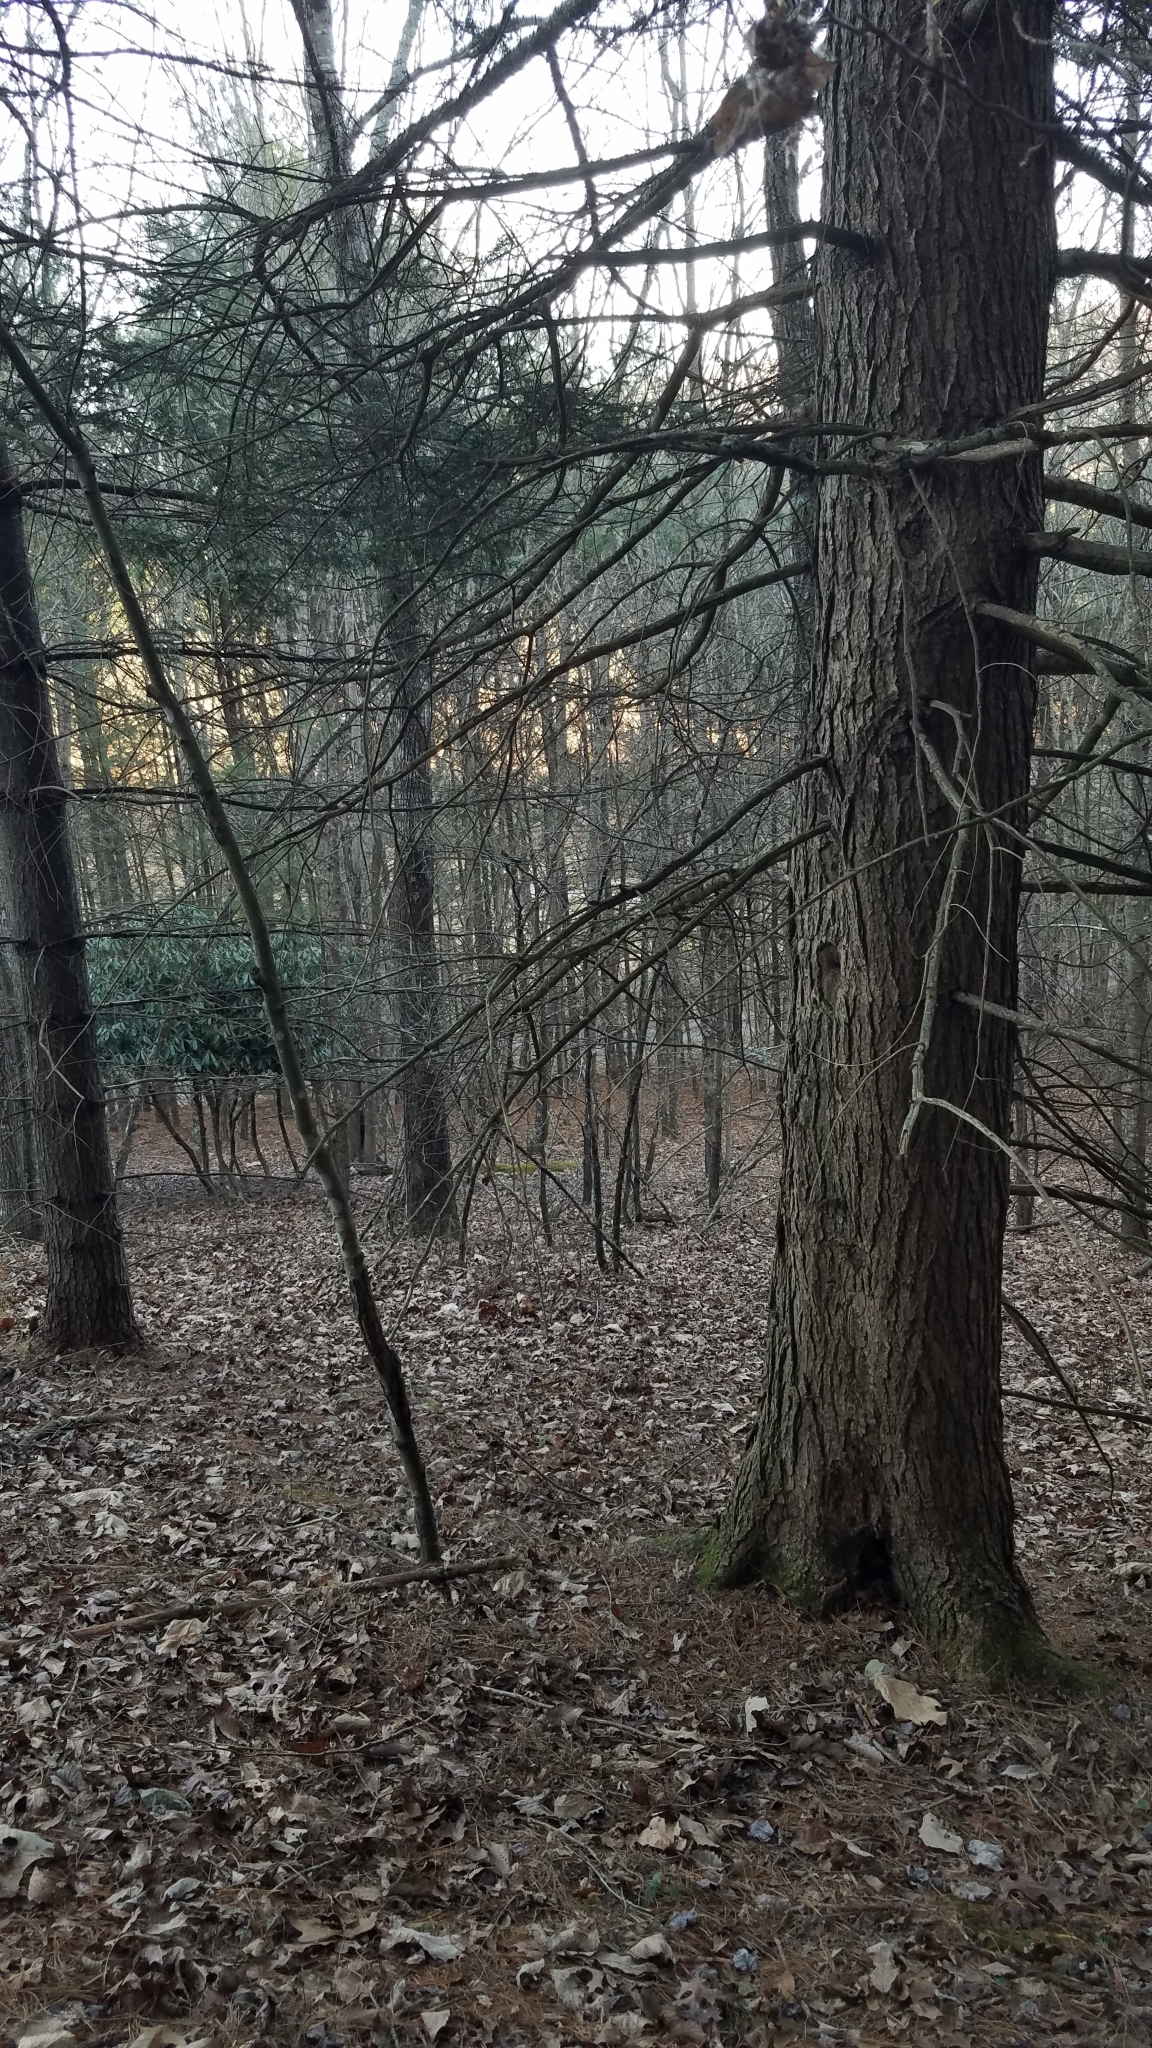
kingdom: Plantae
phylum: Tracheophyta
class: Pinopsida
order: Pinales
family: Pinaceae
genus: Tsuga
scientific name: Tsuga canadensis
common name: Eastern hemlock
